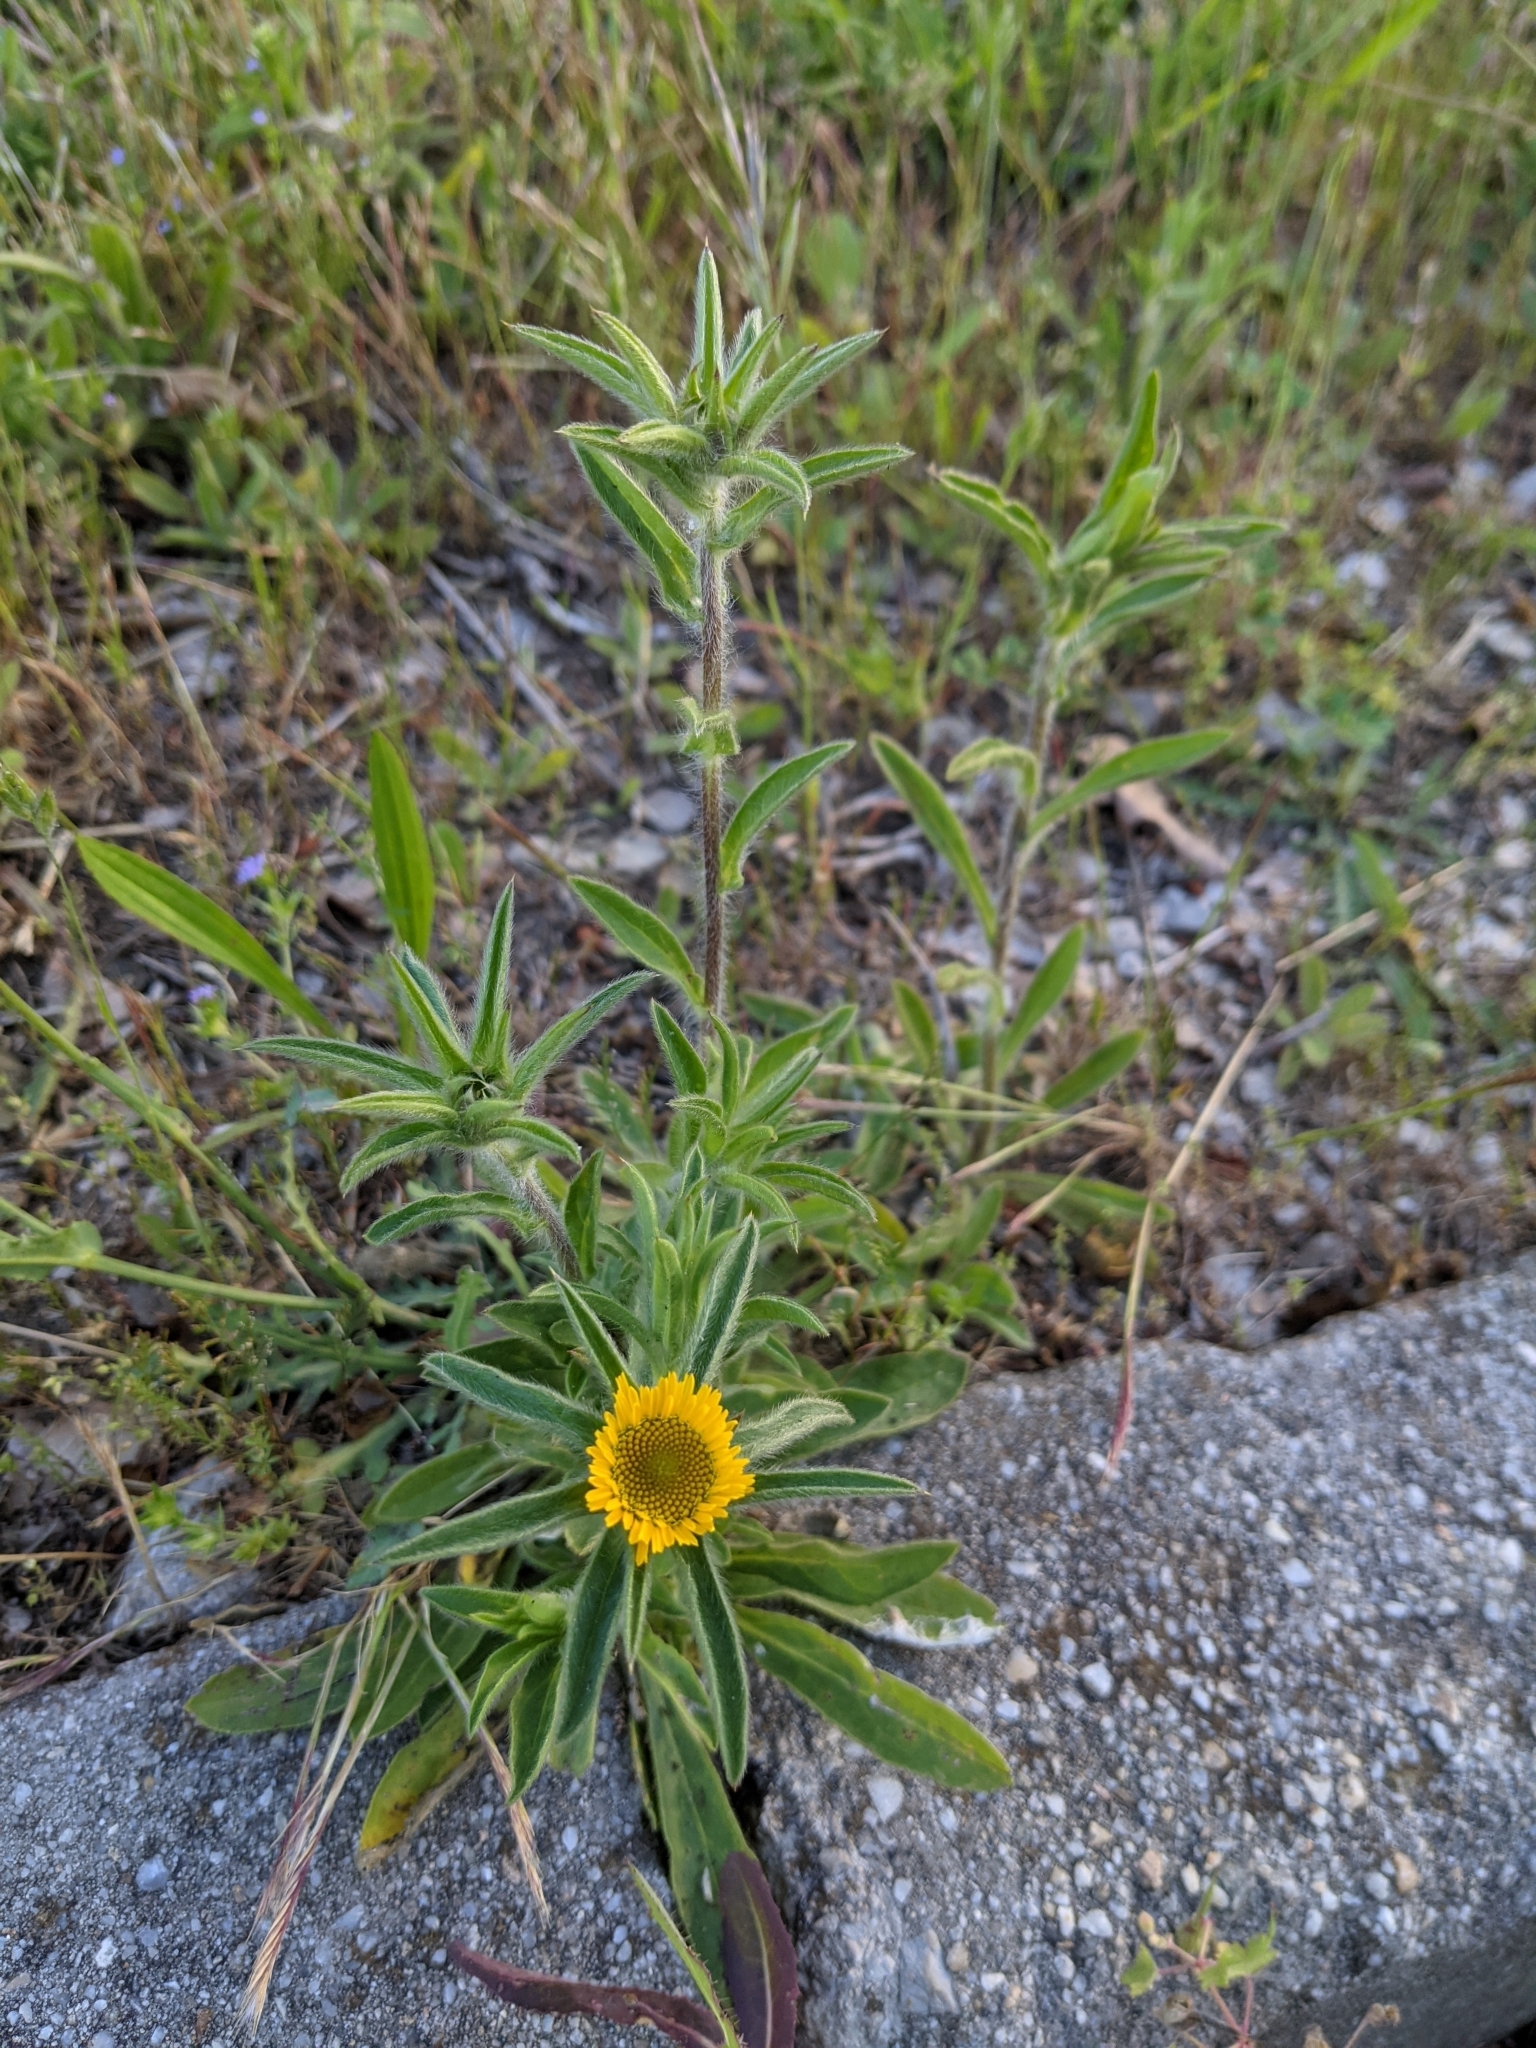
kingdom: Plantae
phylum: Tracheophyta
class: Magnoliopsida
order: Asterales
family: Asteraceae
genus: Pallenis
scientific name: Pallenis spinosa
